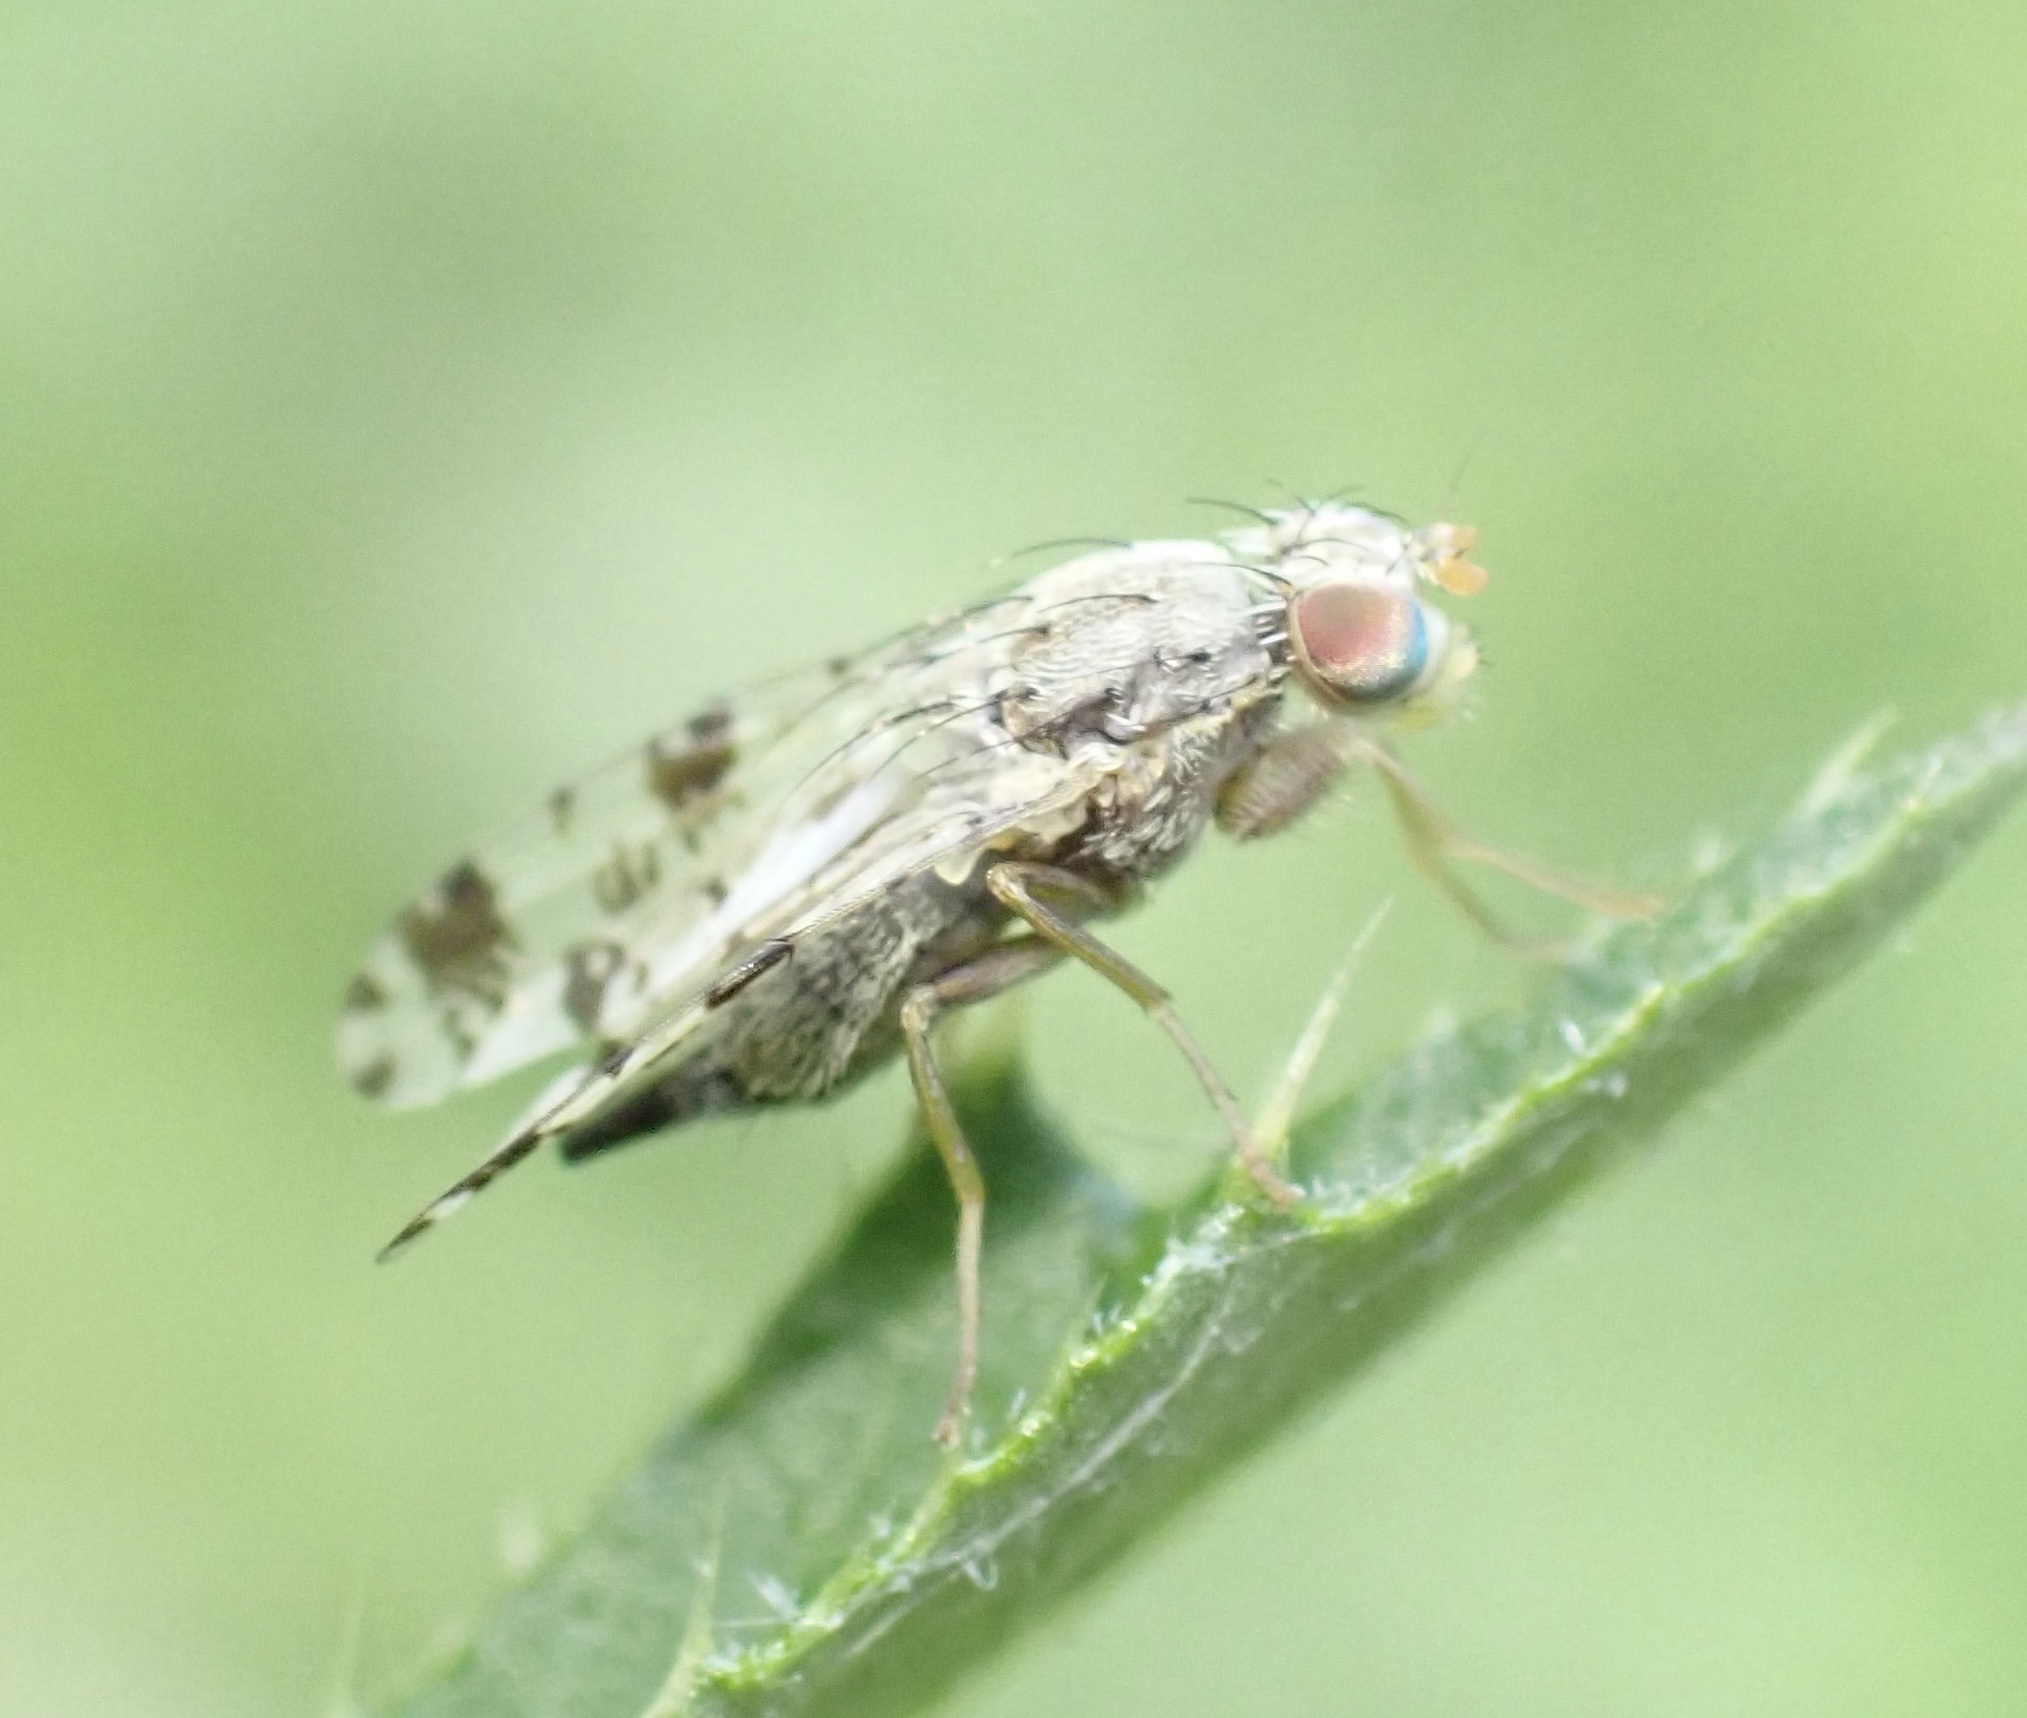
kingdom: Animalia
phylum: Arthropoda
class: Insecta
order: Diptera
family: Tephritidae
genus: Tephritis
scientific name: Tephritis hyoscyami
